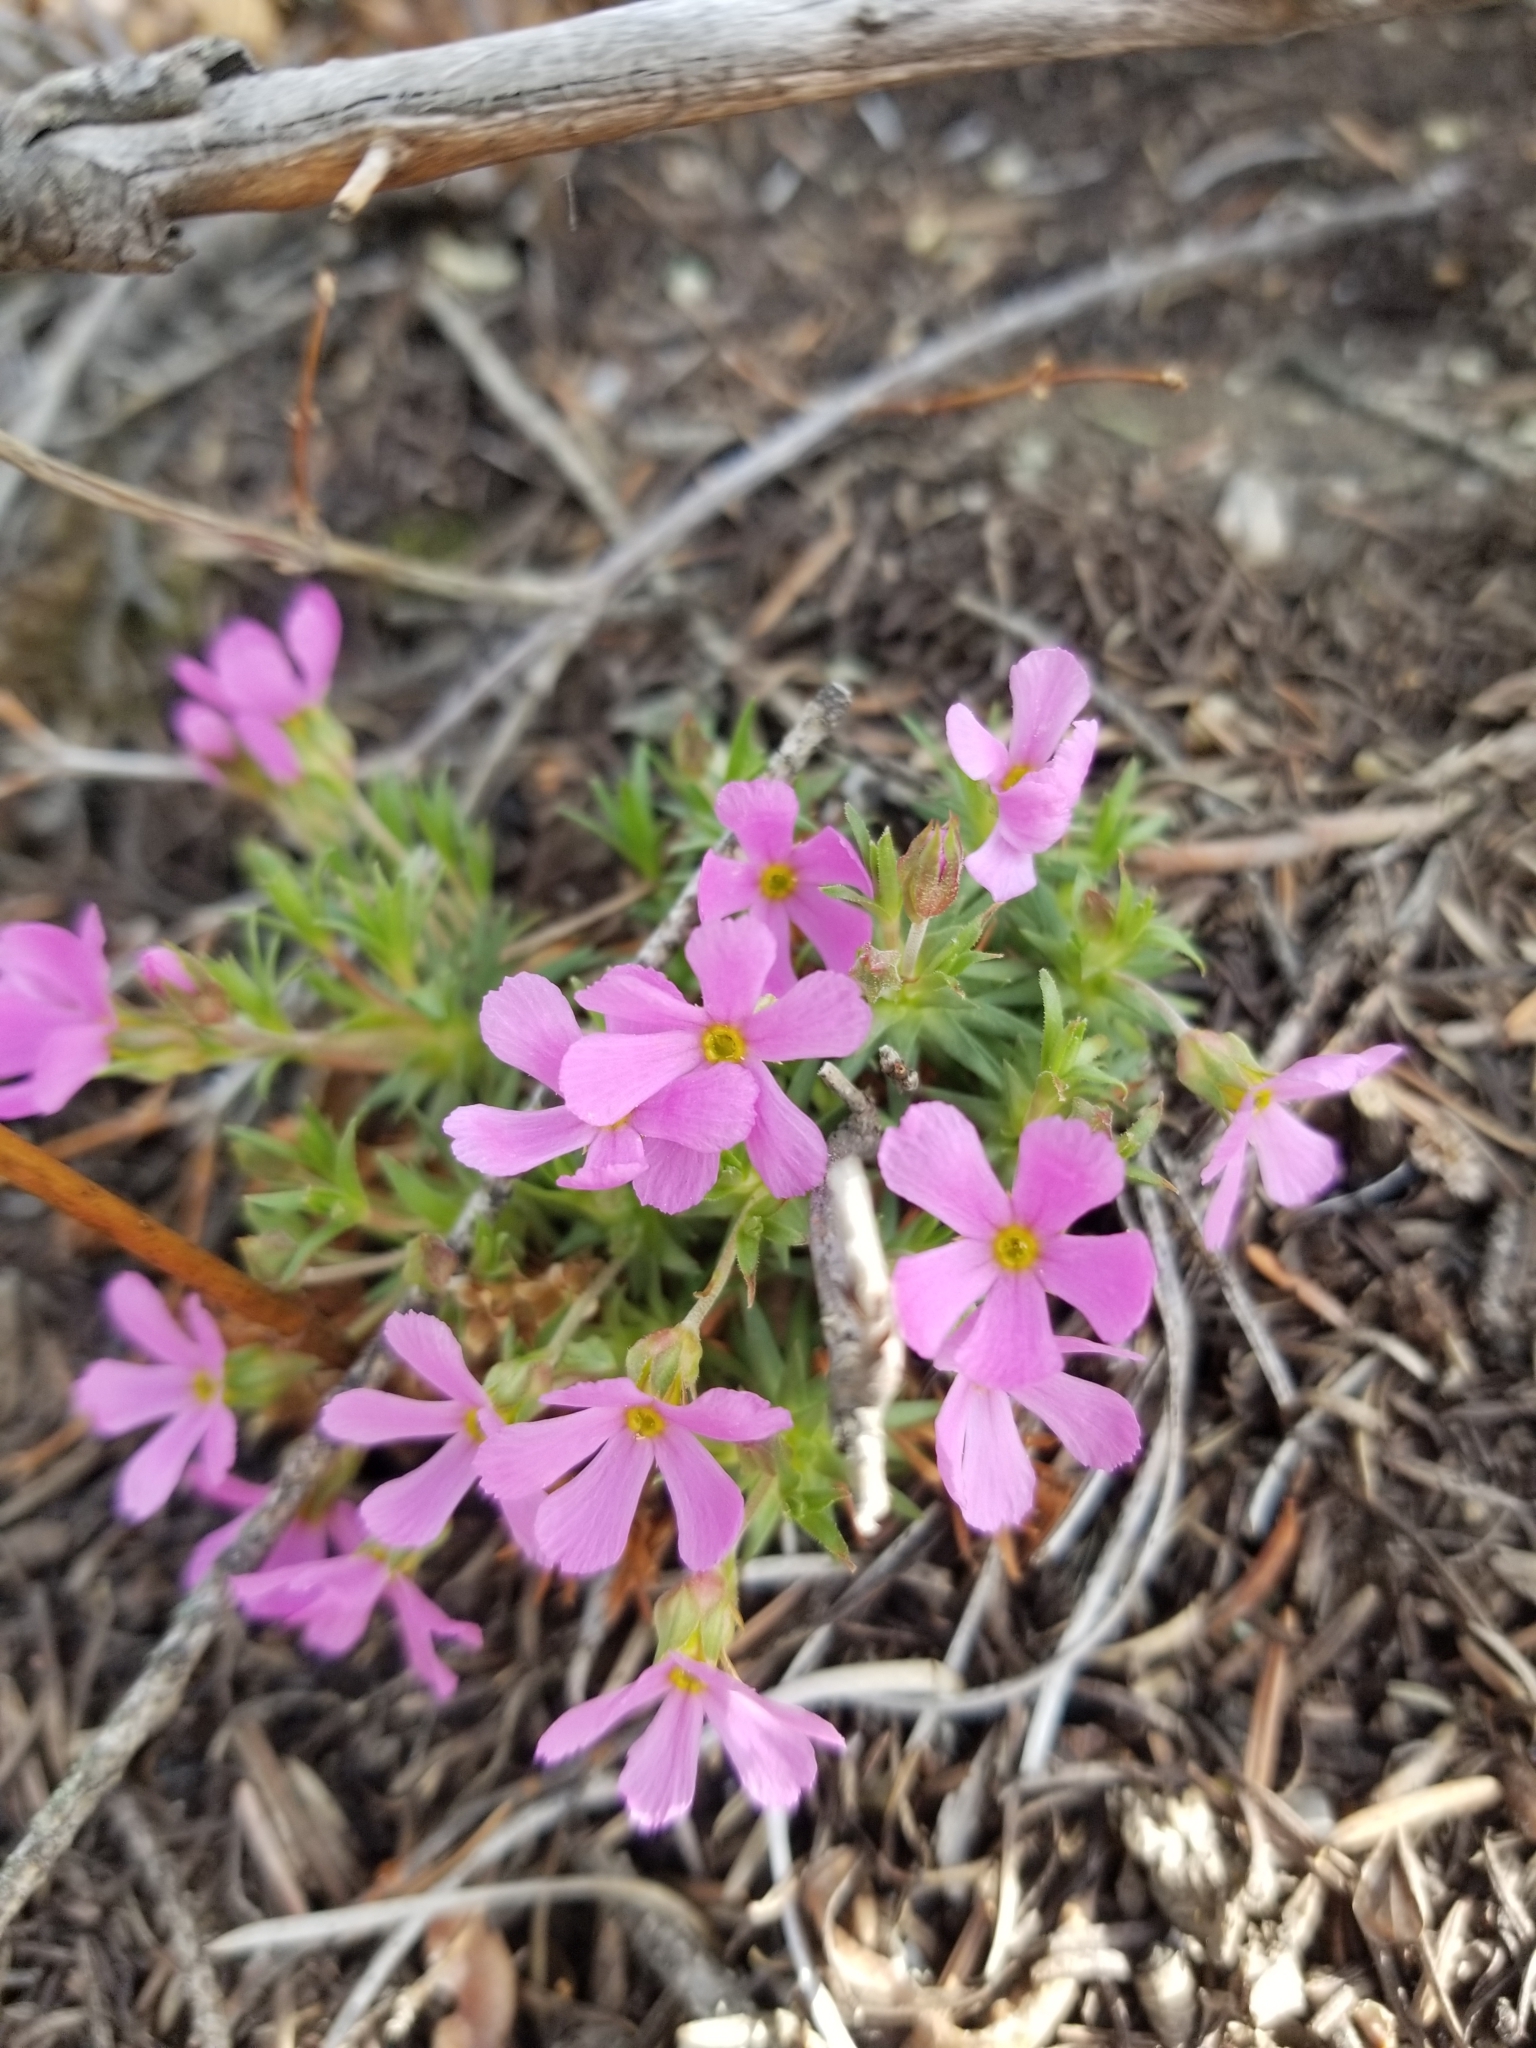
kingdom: Plantae
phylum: Tracheophyta
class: Magnoliopsida
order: Ericales
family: Primulaceae
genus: Androsace
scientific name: Androsace montana
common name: Rocky mountain dwarf-primrose
